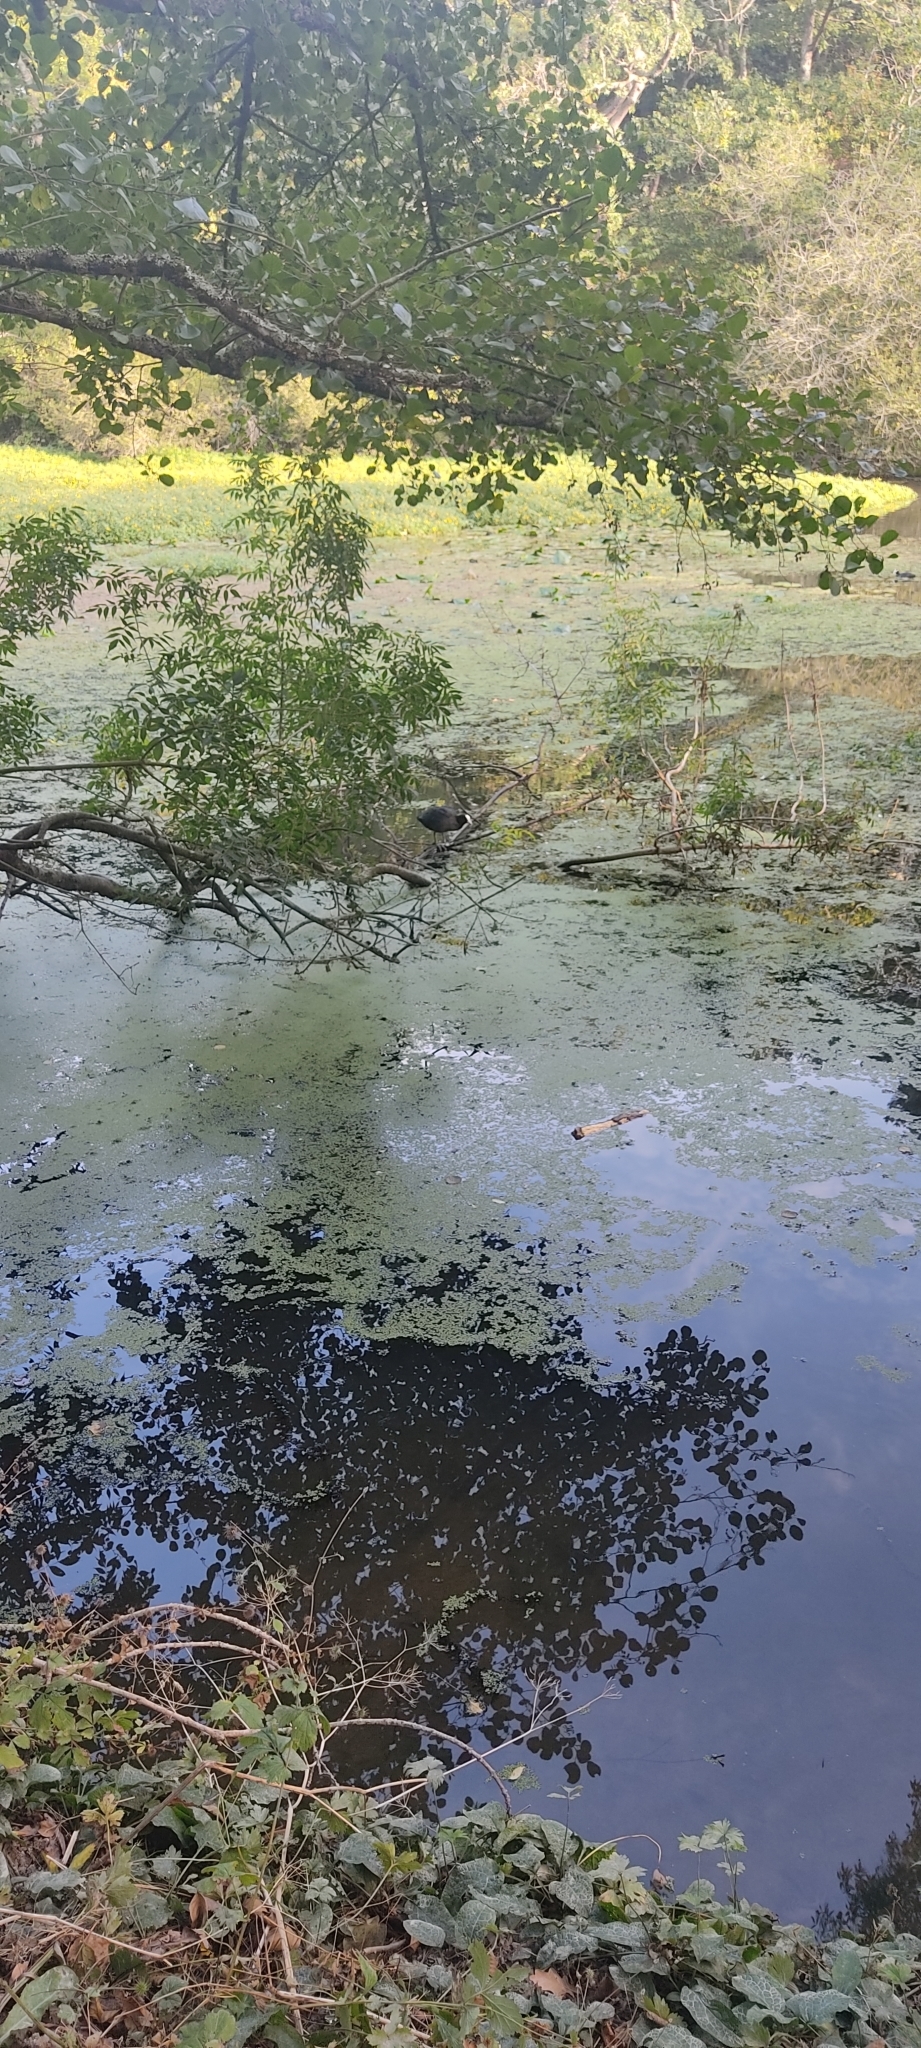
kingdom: Animalia
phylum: Chordata
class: Aves
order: Gruiformes
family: Rallidae
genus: Fulica
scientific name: Fulica atra
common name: Eurasian coot
